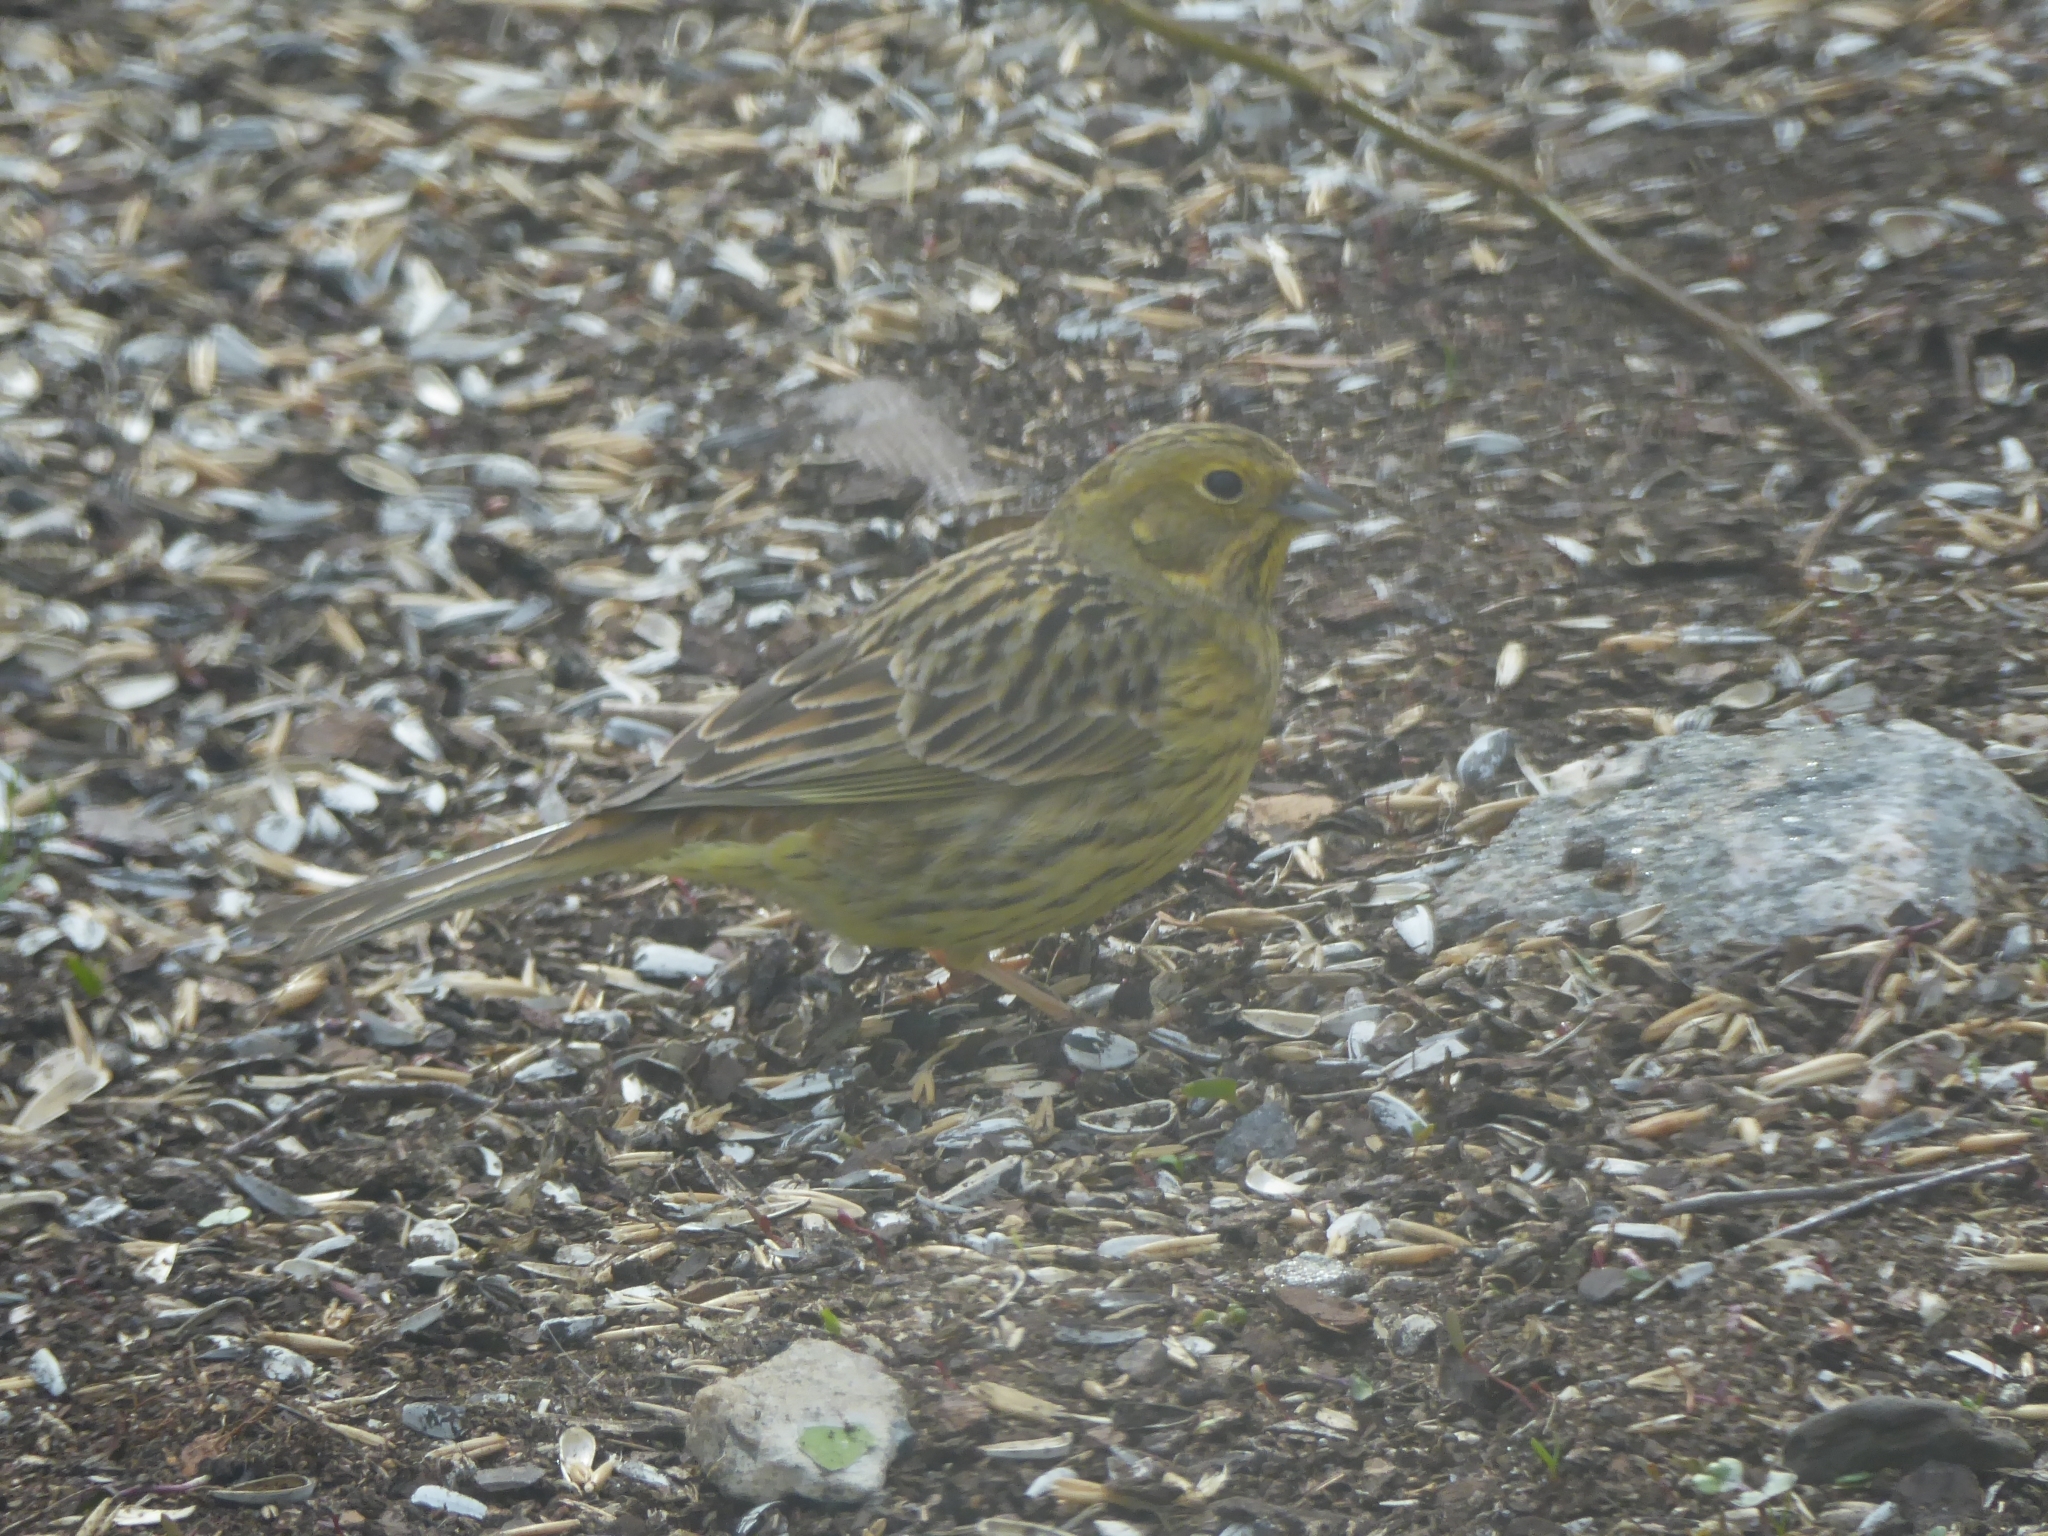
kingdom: Animalia
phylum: Chordata
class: Aves
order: Passeriformes
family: Emberizidae
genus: Emberiza
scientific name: Emberiza citrinella
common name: Yellowhammer
